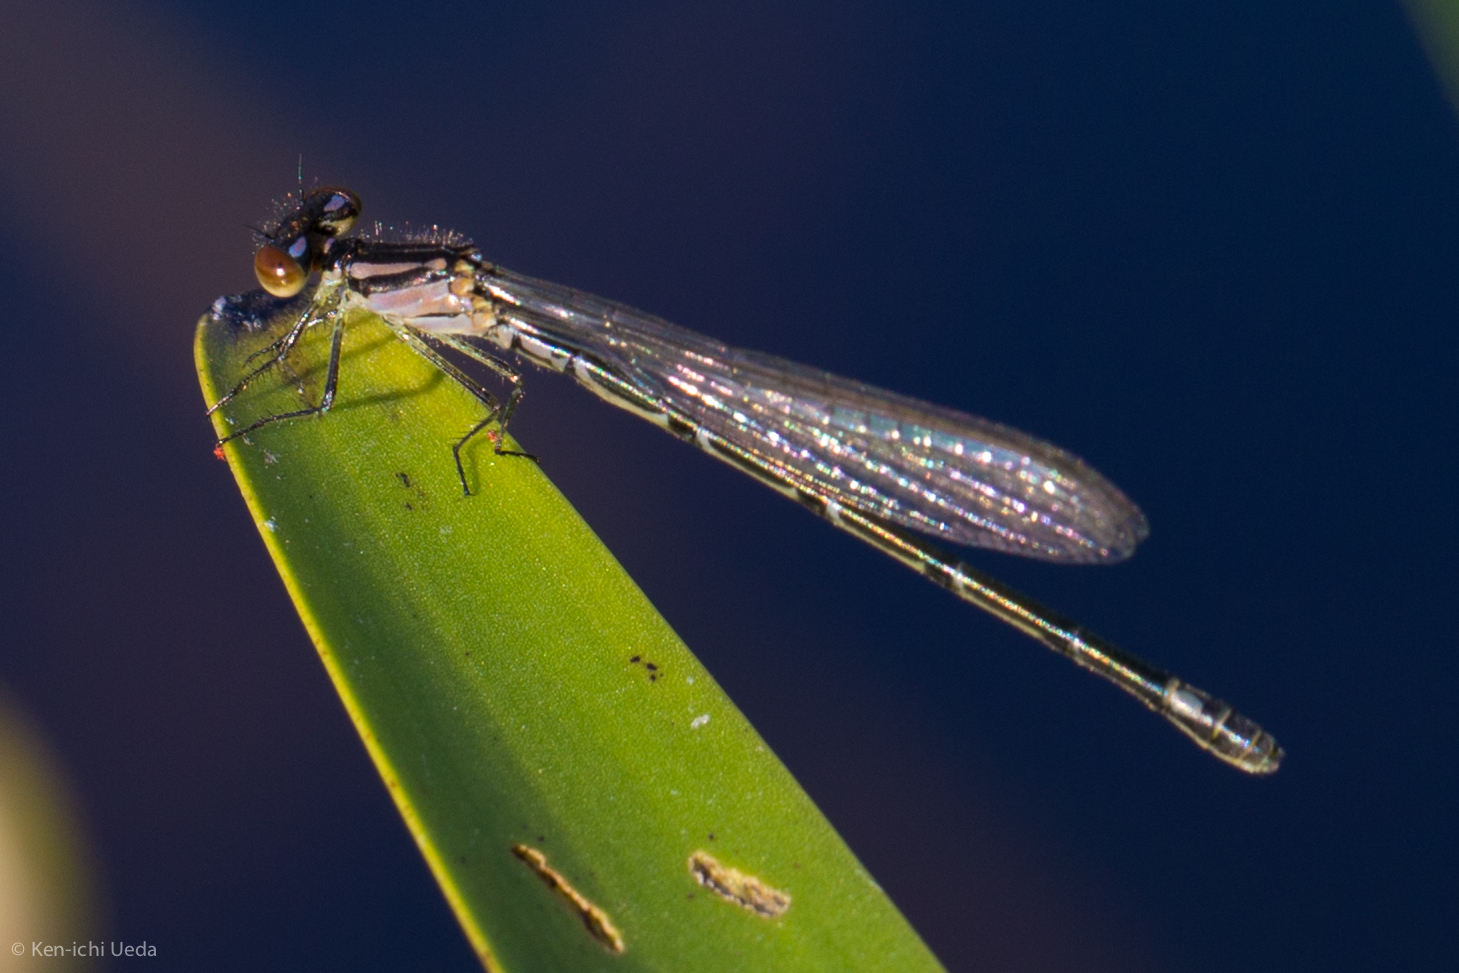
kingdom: Animalia
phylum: Arthropoda
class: Insecta
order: Odonata
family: Coenagrionidae
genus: Enallagma
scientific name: Enallagma geminatum
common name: Skimming bluet
